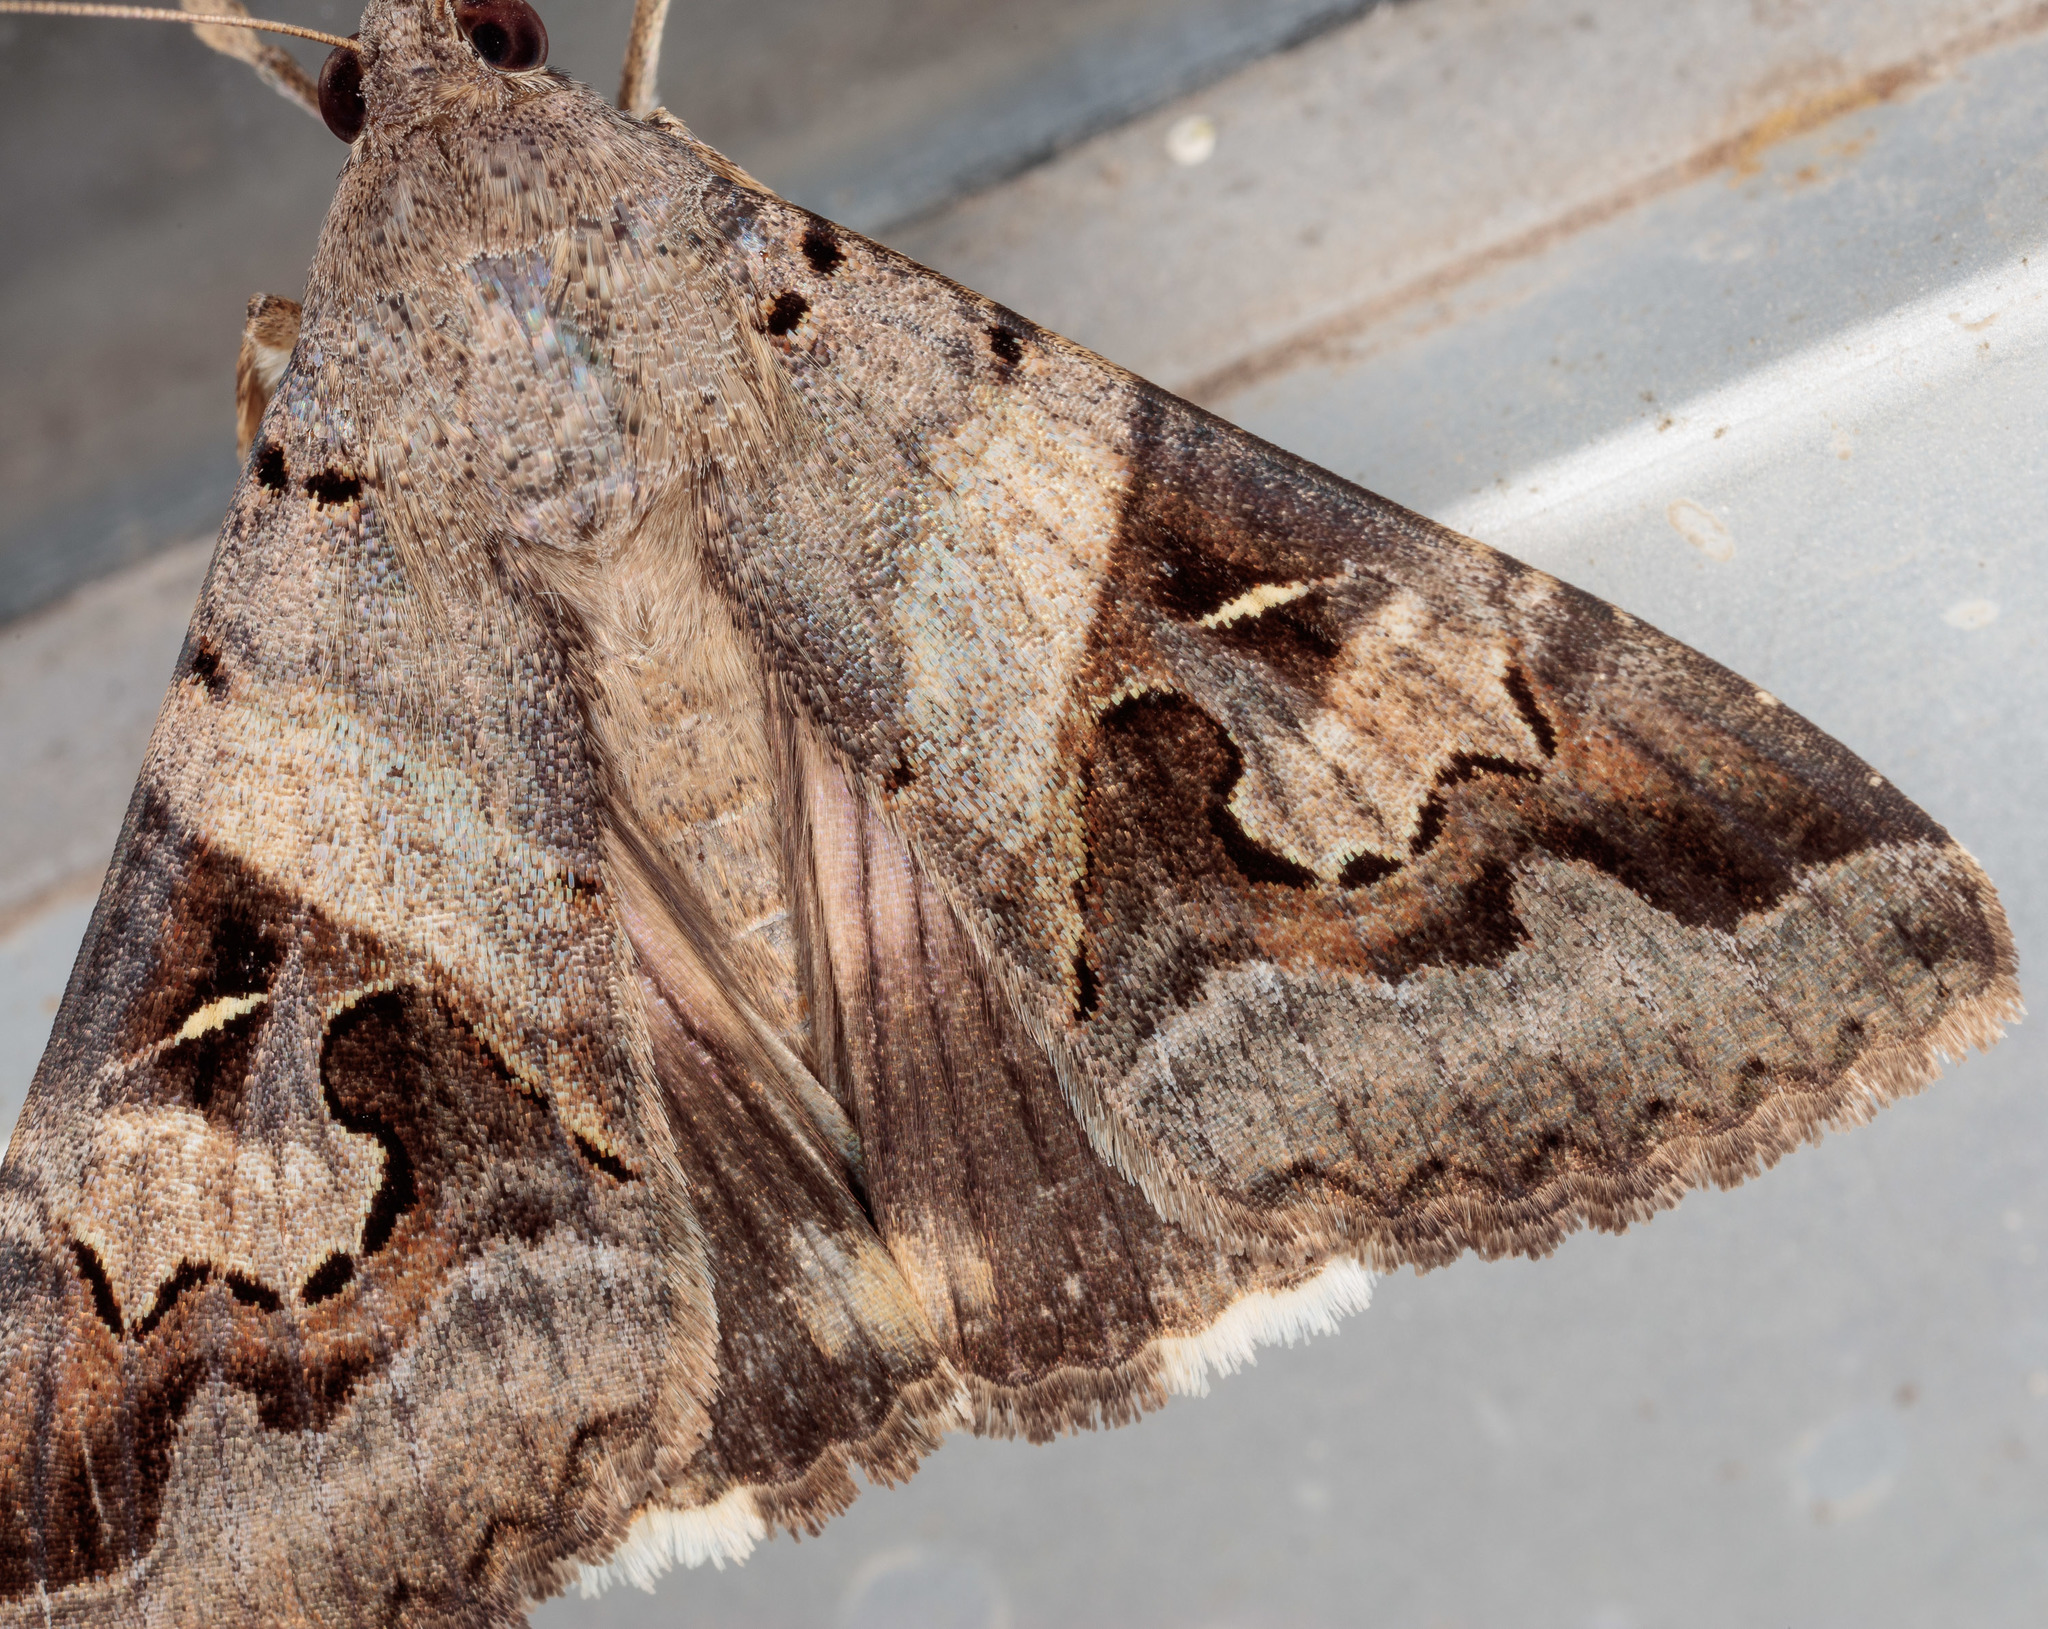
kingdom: Animalia
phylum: Arthropoda
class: Insecta
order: Lepidoptera
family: Erebidae
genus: Melipotis
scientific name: Melipotis indomita
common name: Moth
